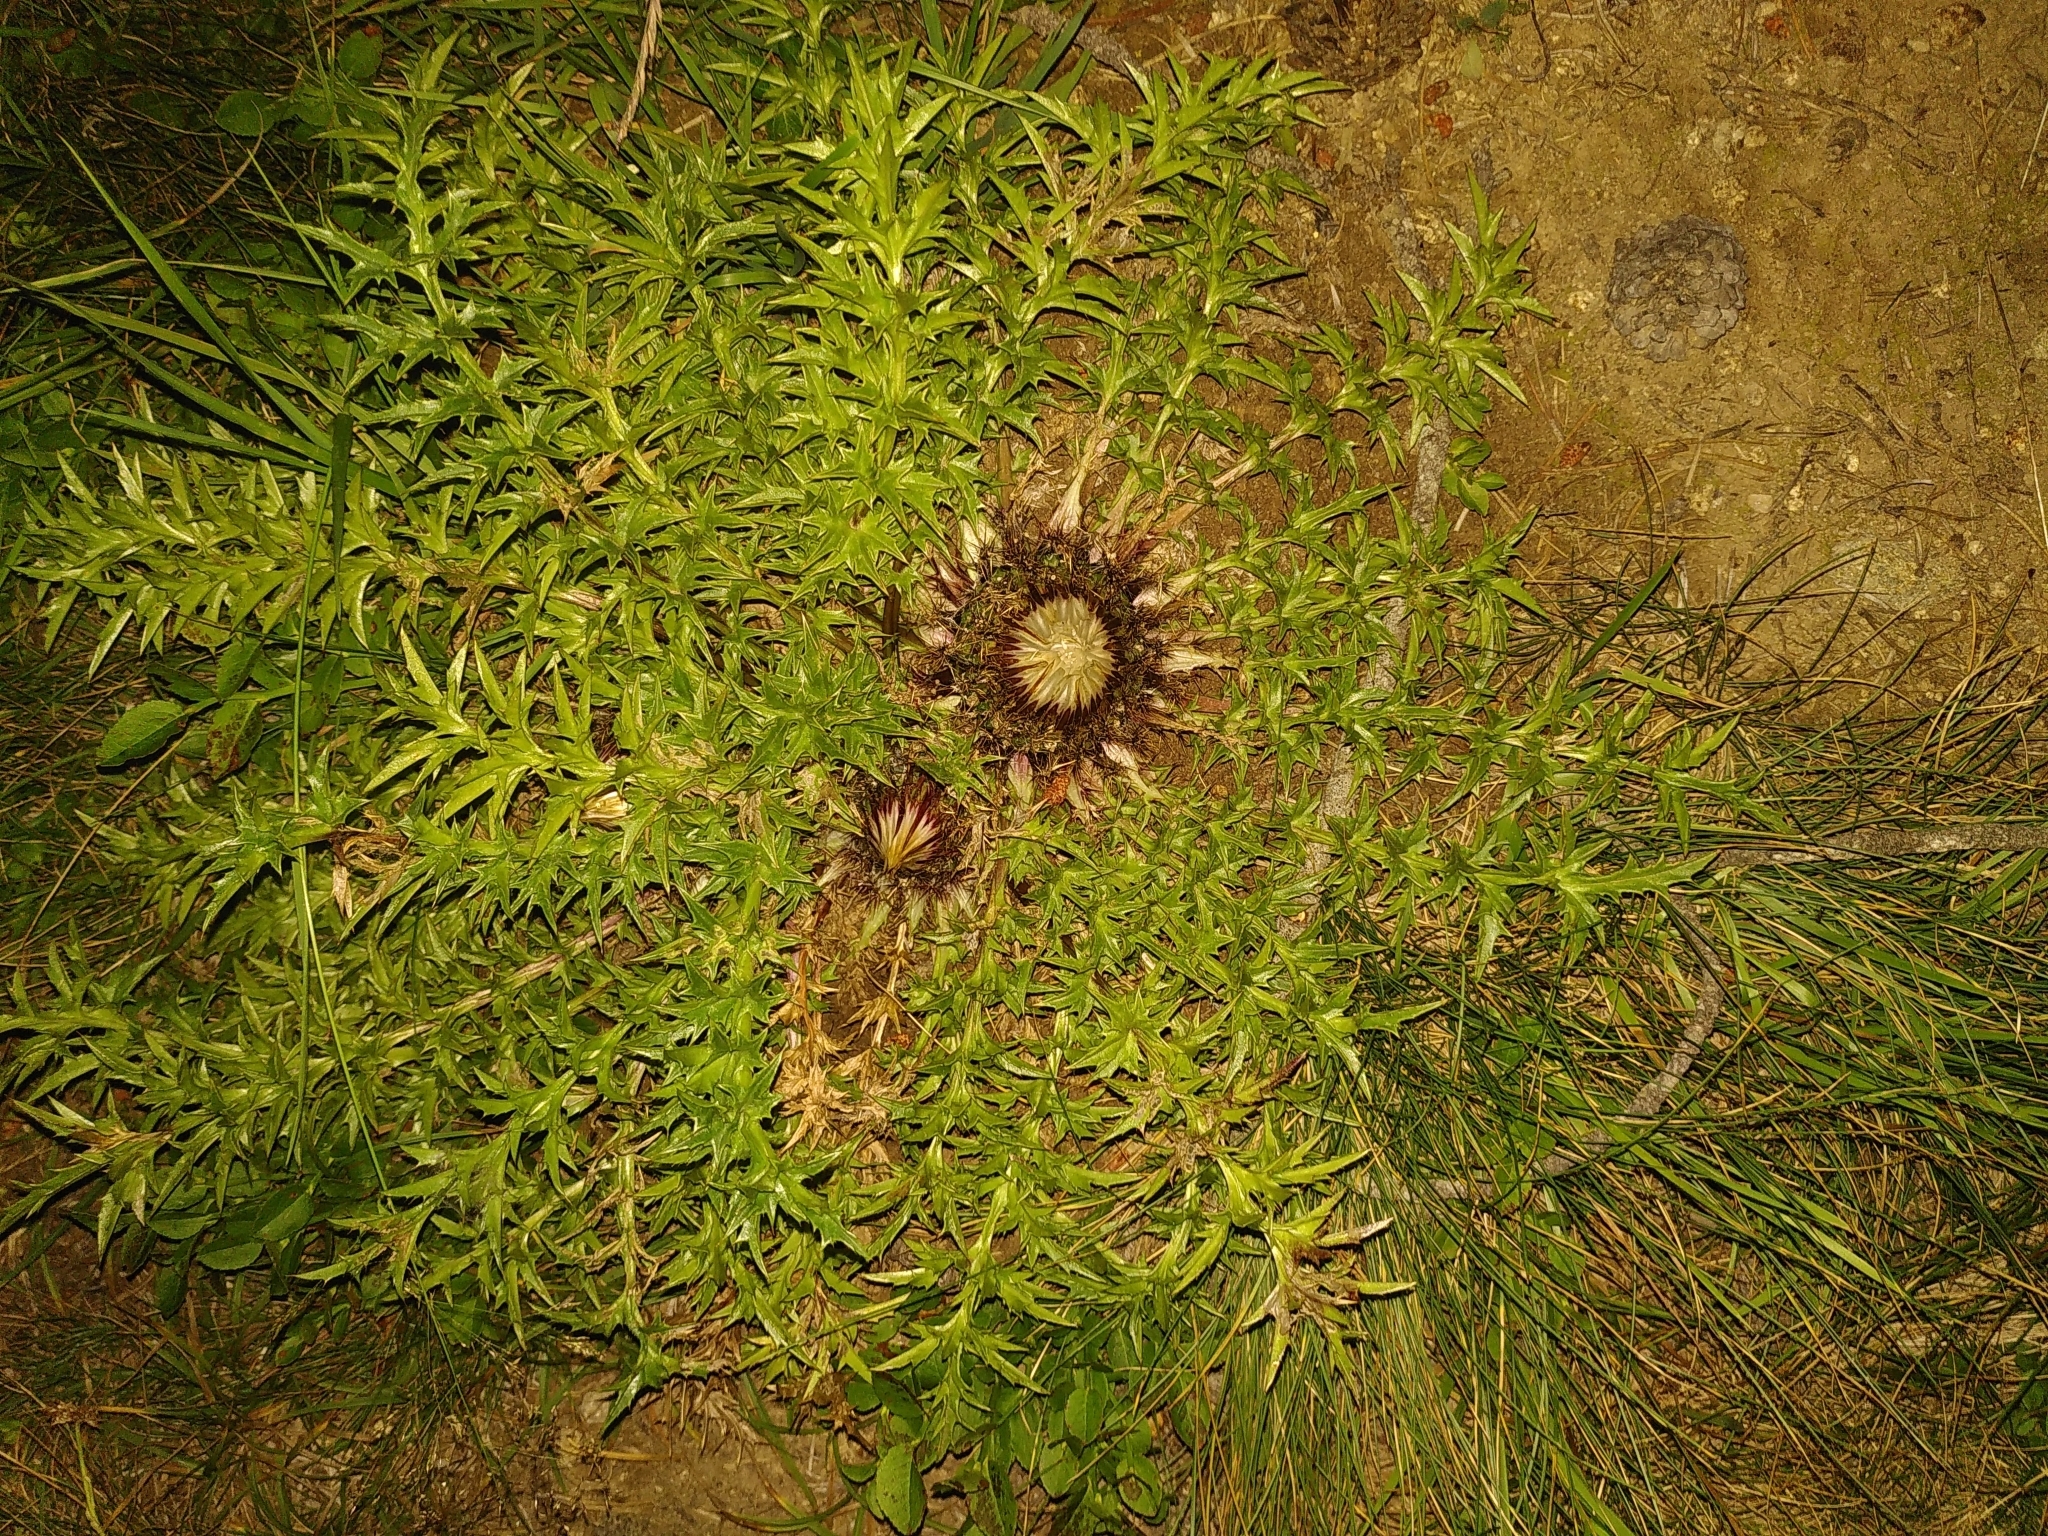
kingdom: Plantae
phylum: Tracheophyta
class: Magnoliopsida
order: Asterales
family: Asteraceae
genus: Carlina
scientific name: Carlina acaulis
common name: Stemless carline thistle
